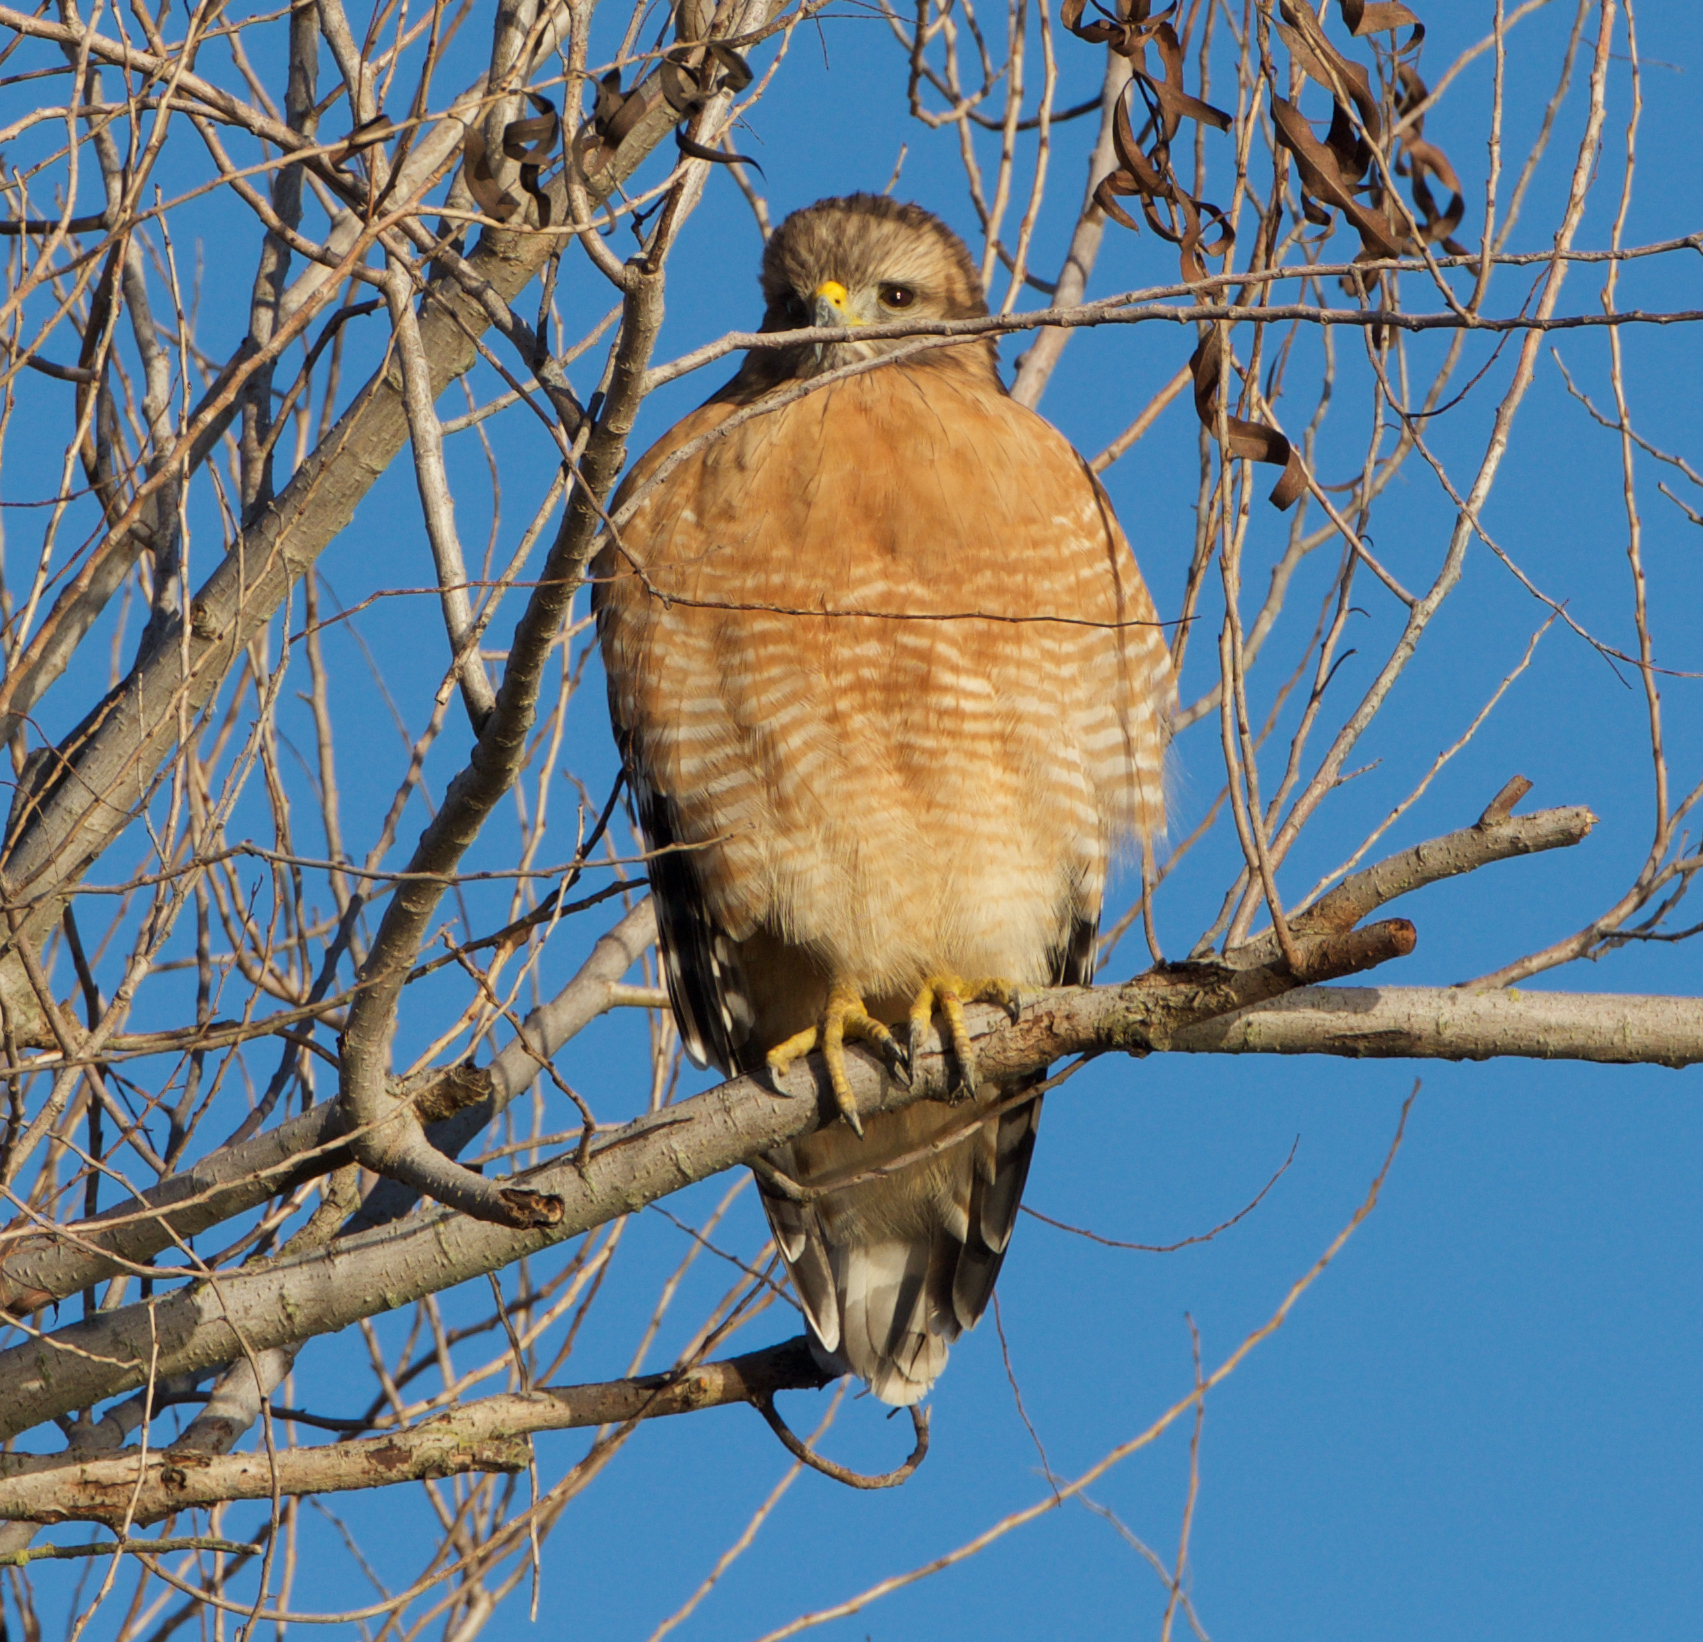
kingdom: Animalia
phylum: Chordata
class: Aves
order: Accipitriformes
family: Accipitridae
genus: Buteo
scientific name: Buteo lineatus
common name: Red-shouldered hawk
